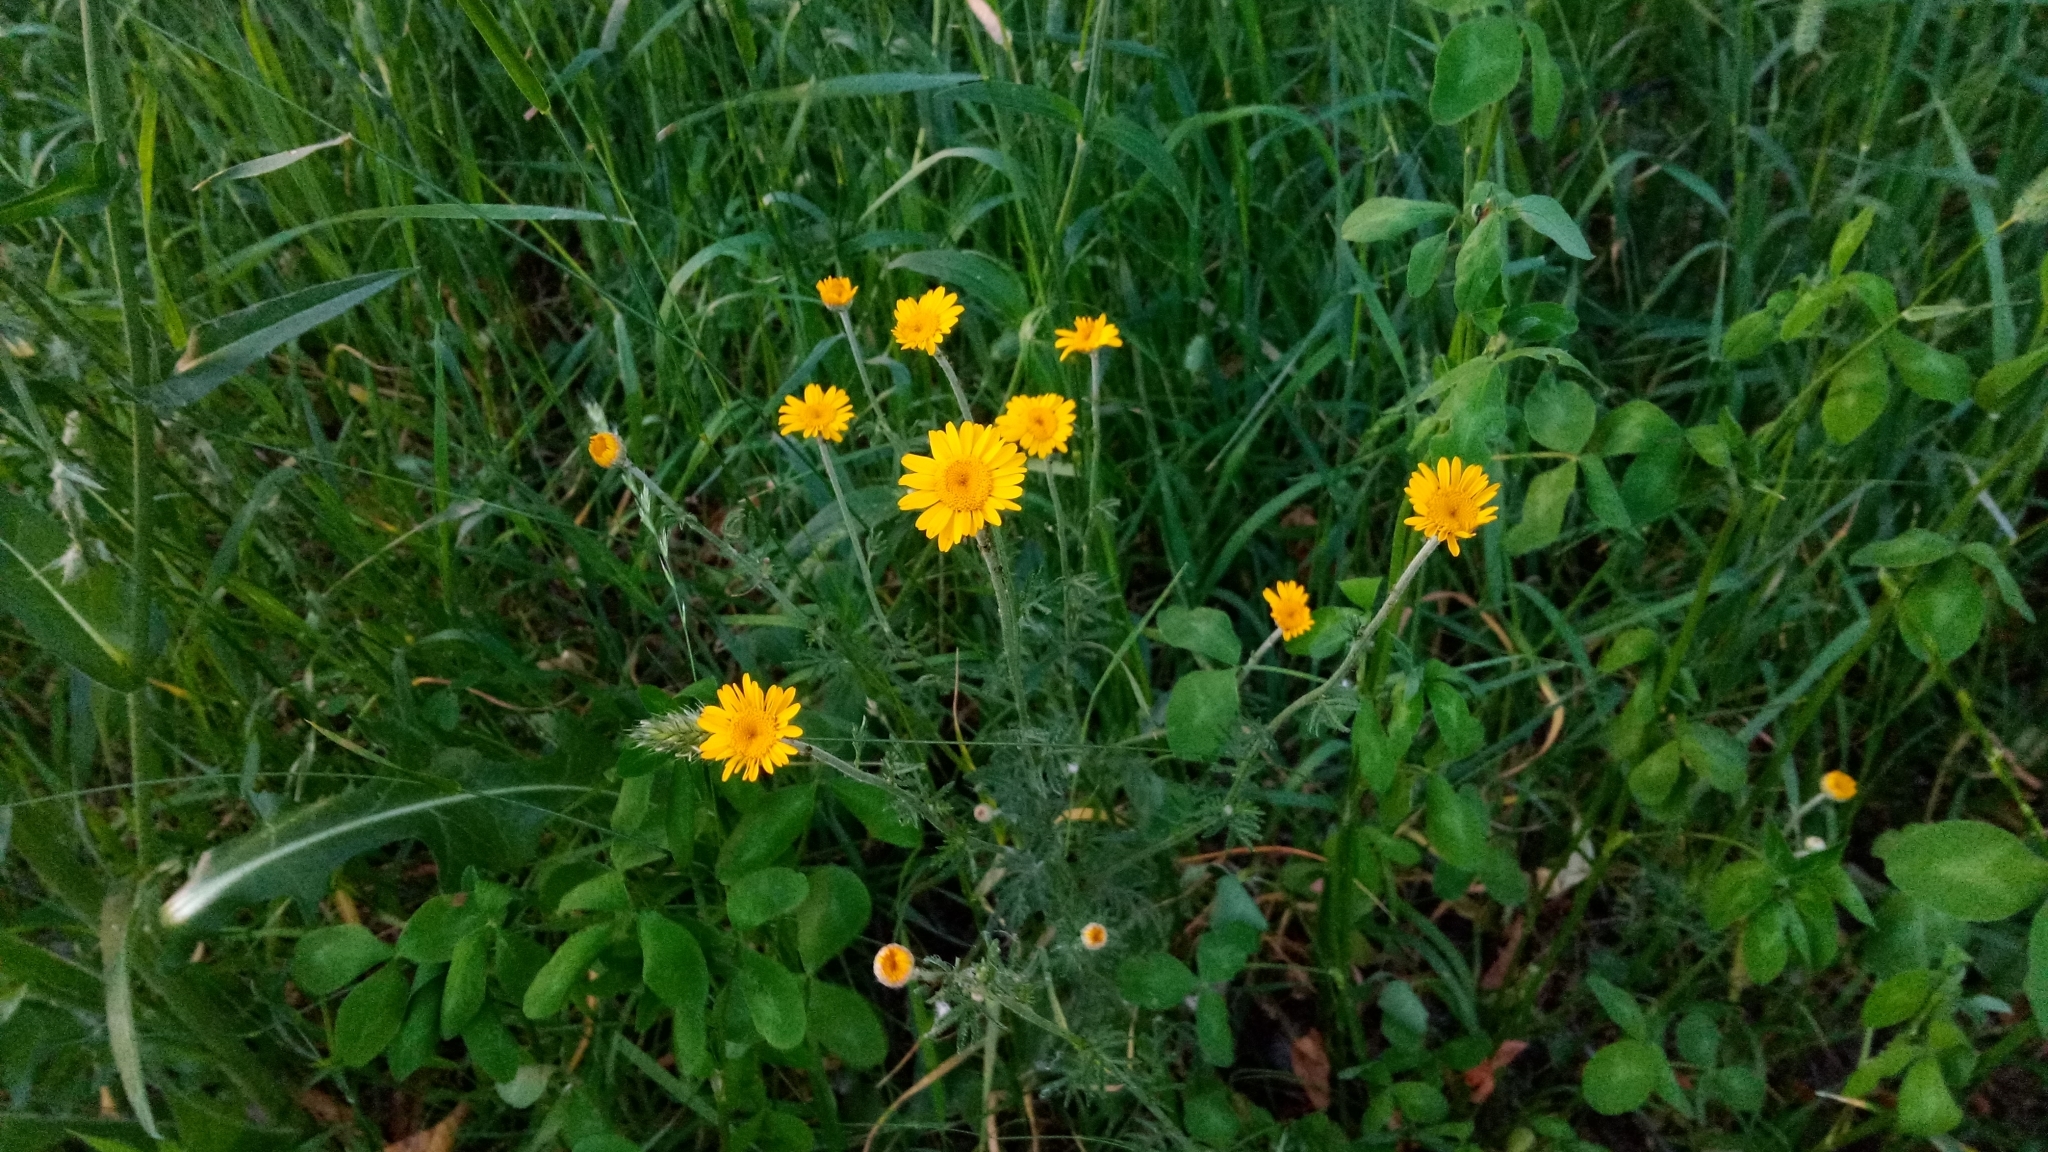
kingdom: Plantae
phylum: Tracheophyta
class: Magnoliopsida
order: Asterales
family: Asteraceae
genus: Cota
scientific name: Cota tinctoria
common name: Golden chamomile
